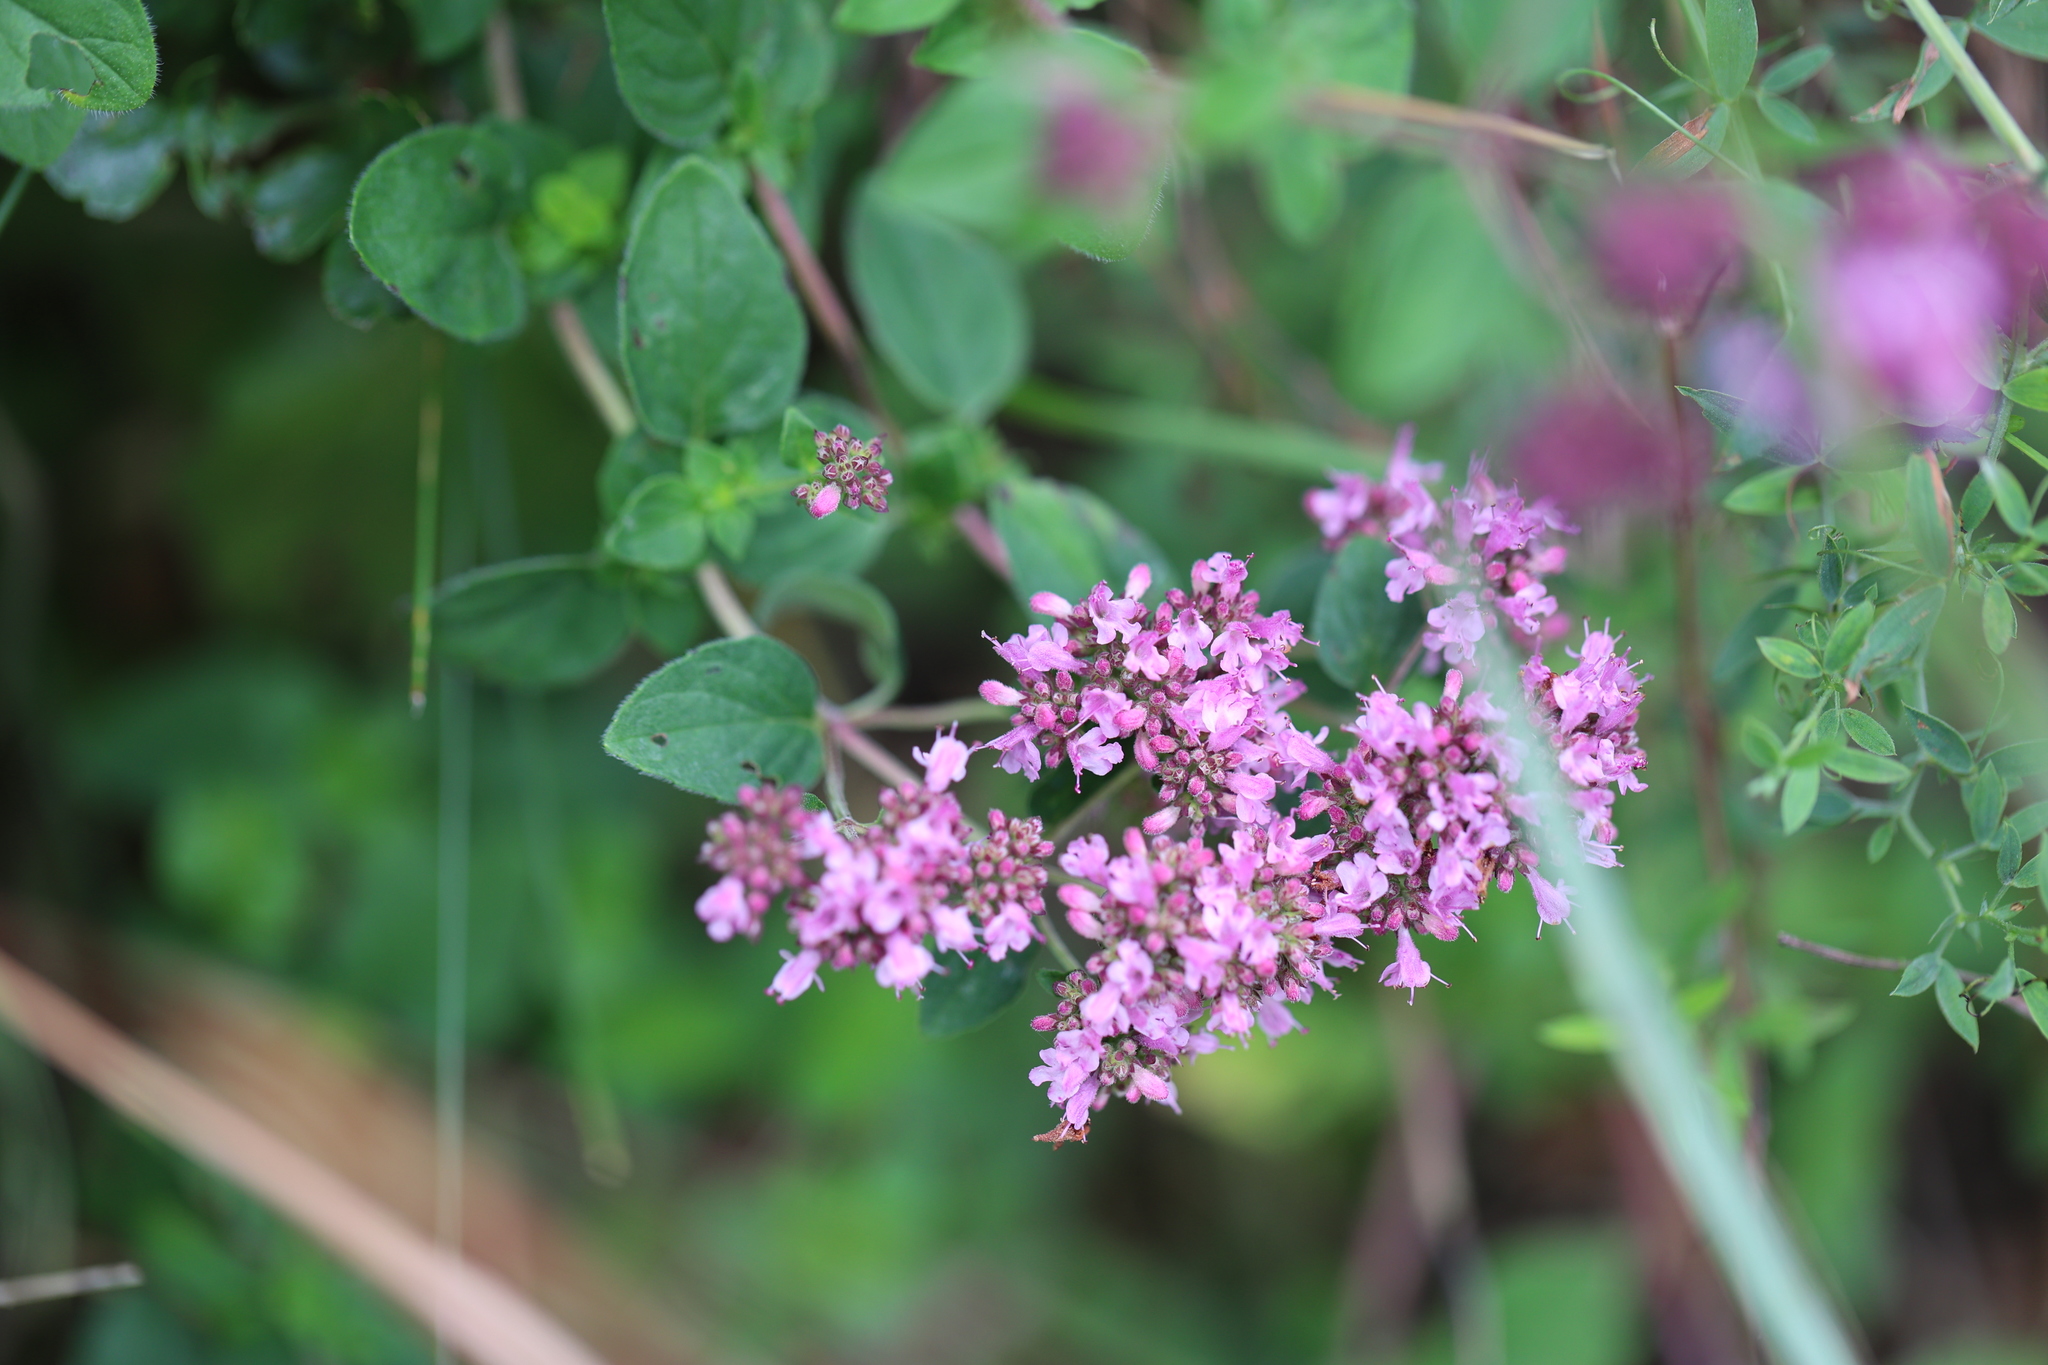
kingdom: Plantae
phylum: Tracheophyta
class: Magnoliopsida
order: Lamiales
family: Lamiaceae
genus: Origanum
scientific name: Origanum vulgare
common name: Wild marjoram
